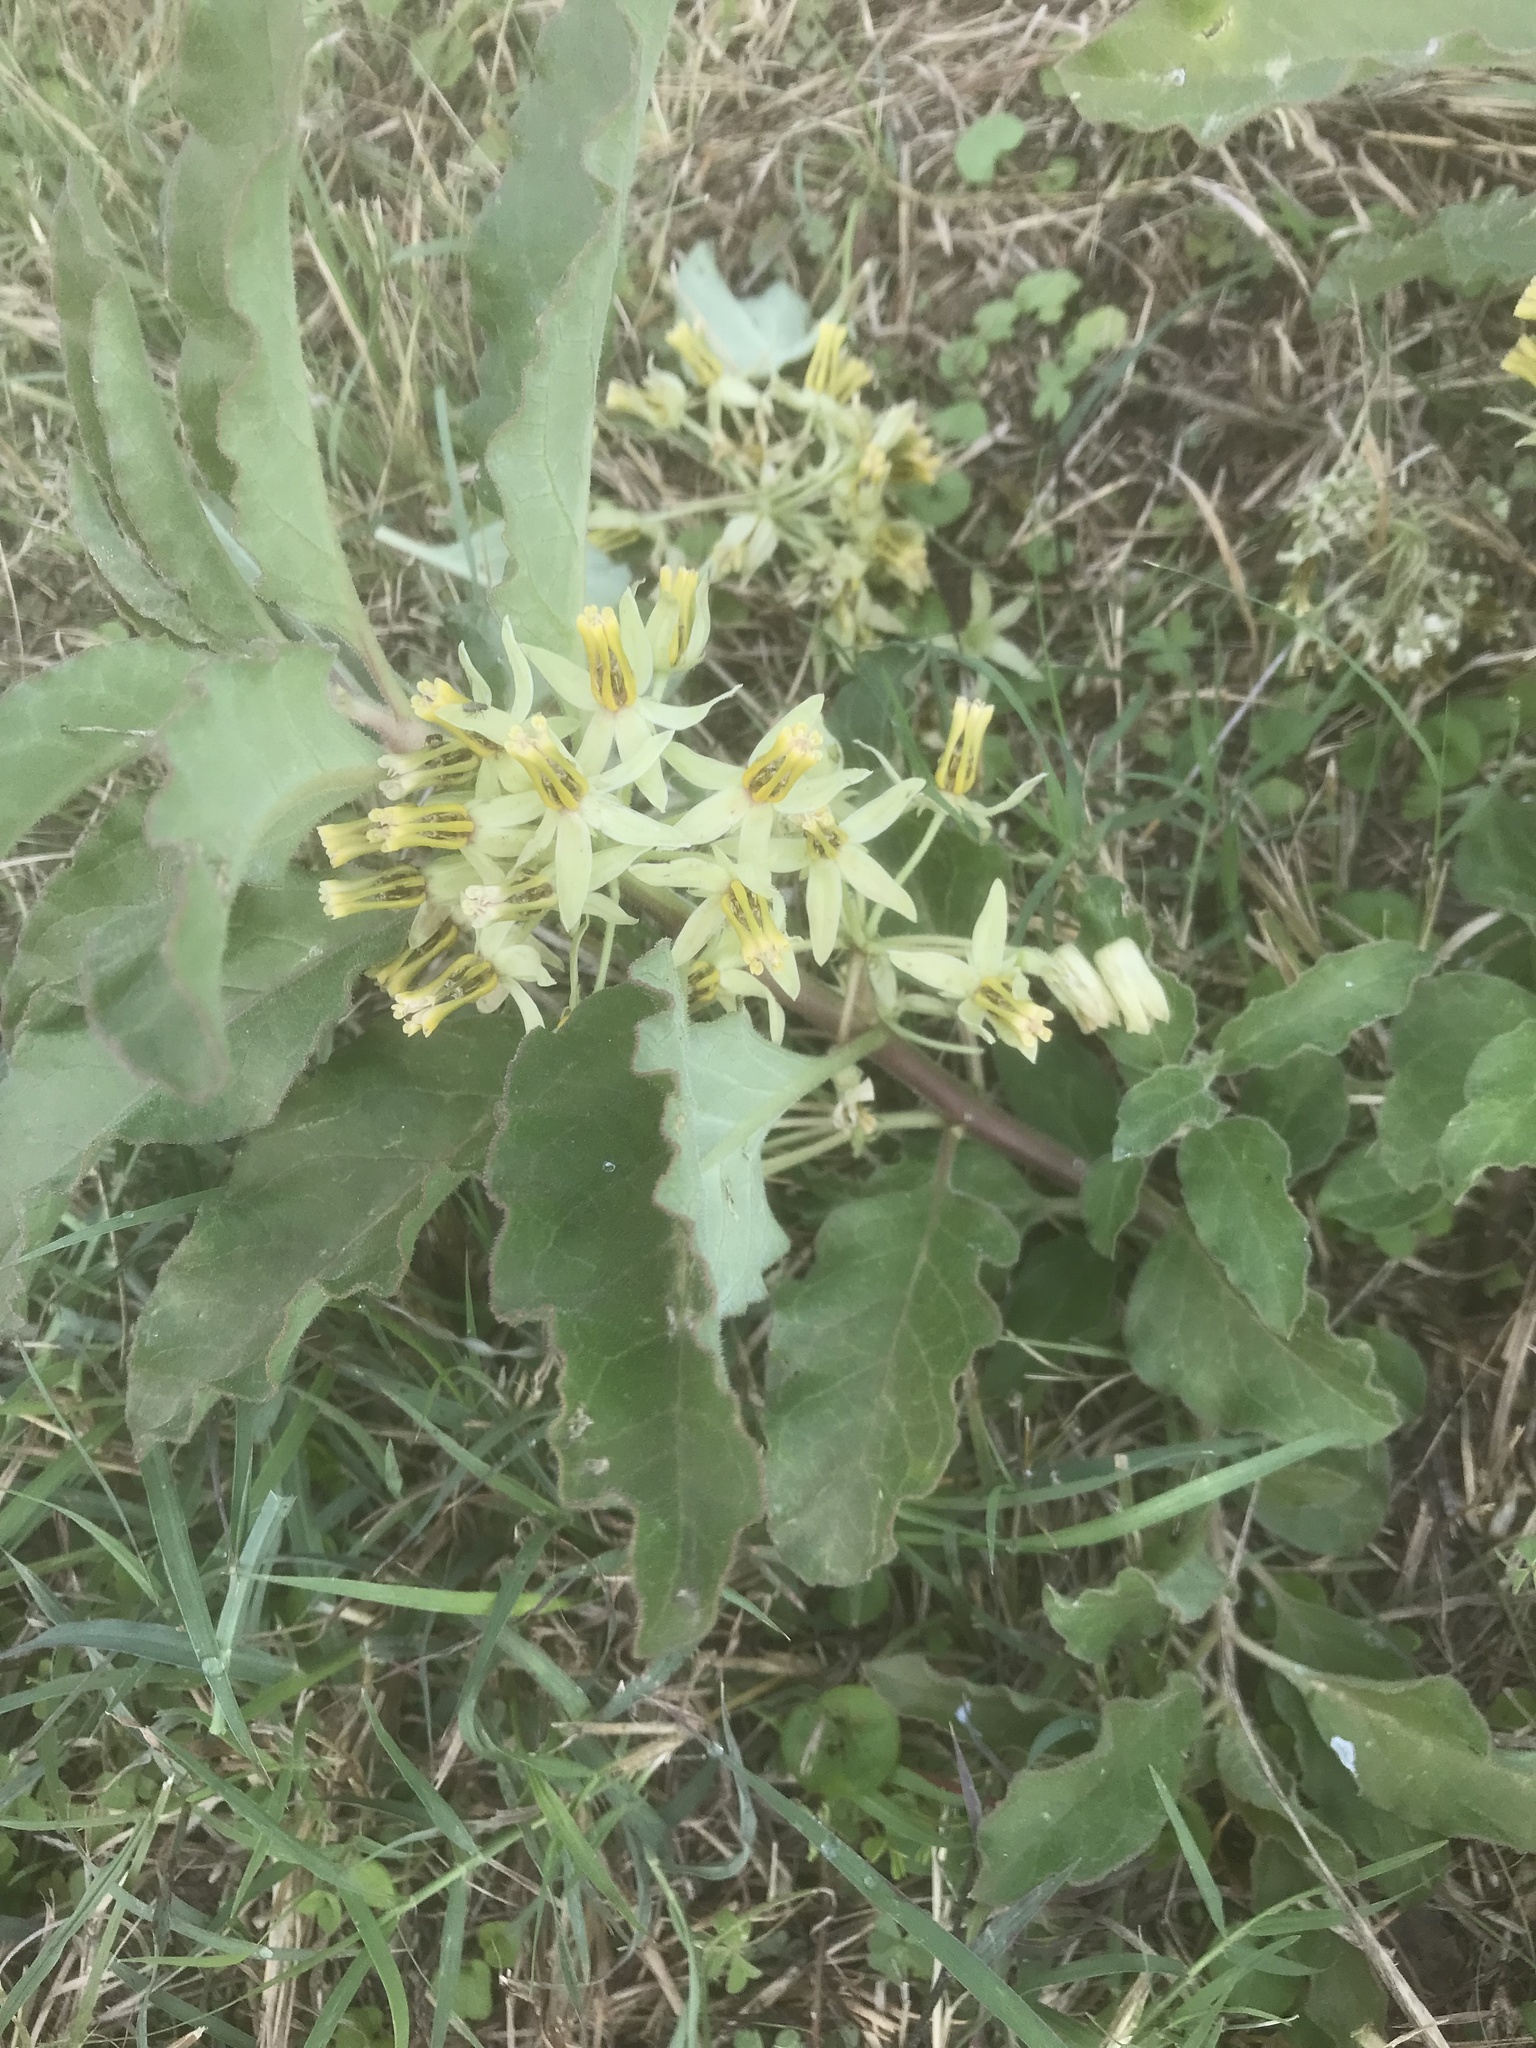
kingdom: Plantae
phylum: Tracheophyta
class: Magnoliopsida
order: Gentianales
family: Apocynaceae
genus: Asclepias
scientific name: Asclepias oenotheroides
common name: Zizotes milkweed
